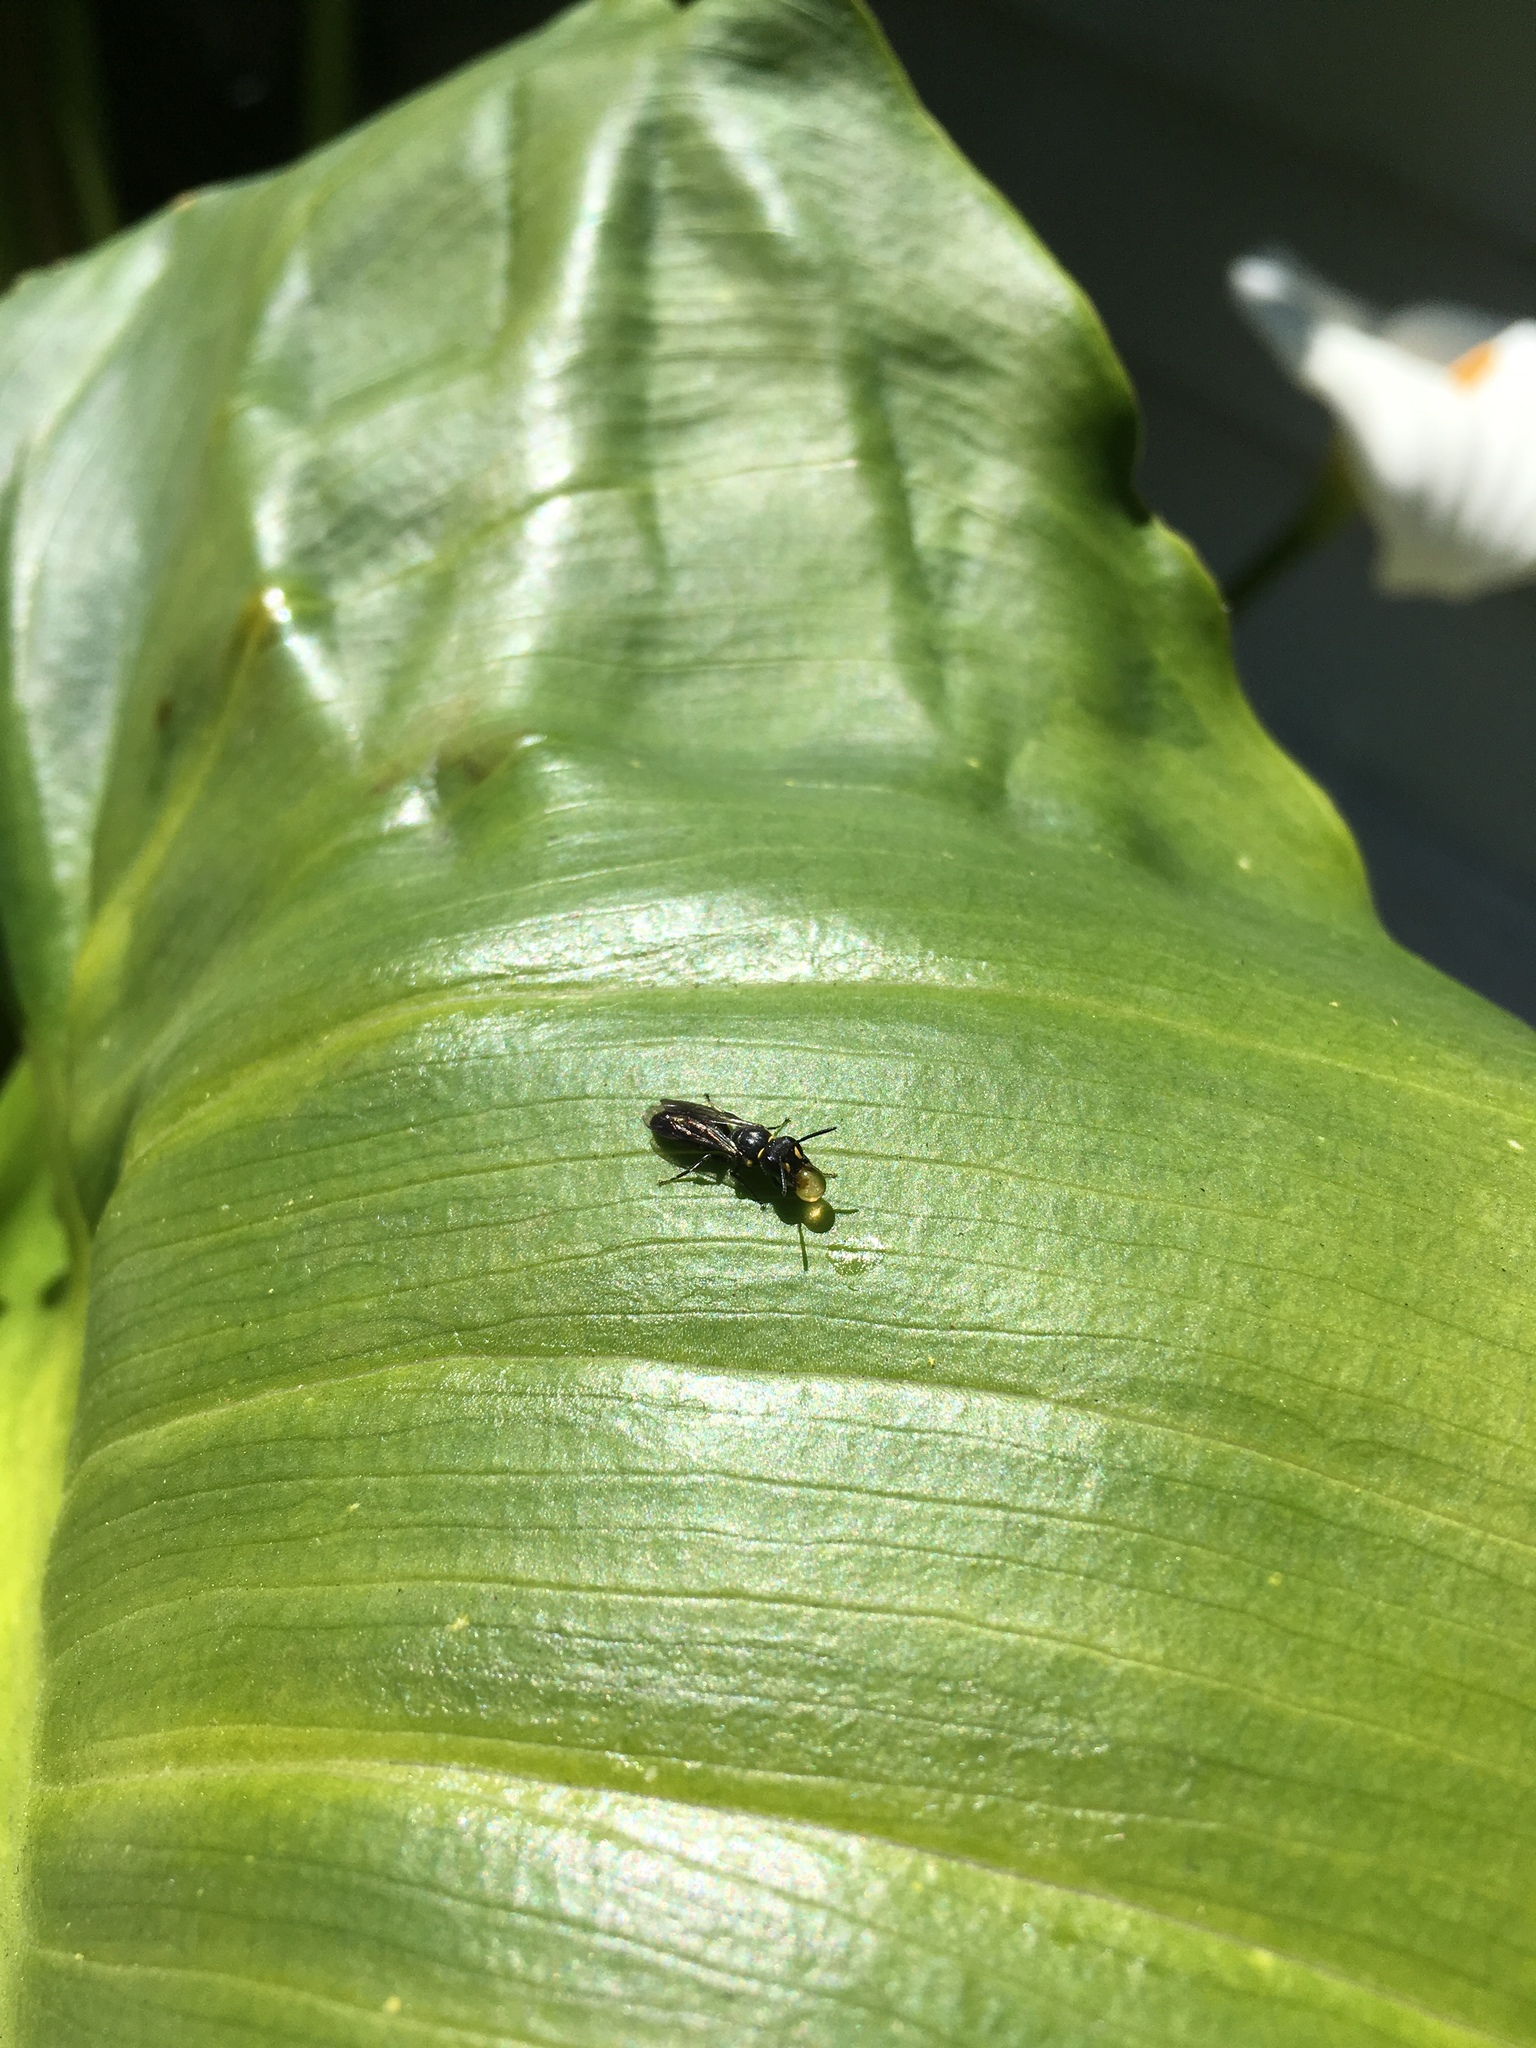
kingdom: Animalia
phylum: Arthropoda
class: Insecta
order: Hymenoptera
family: Colletidae
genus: Hylaeus
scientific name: Hylaeus relegatus
